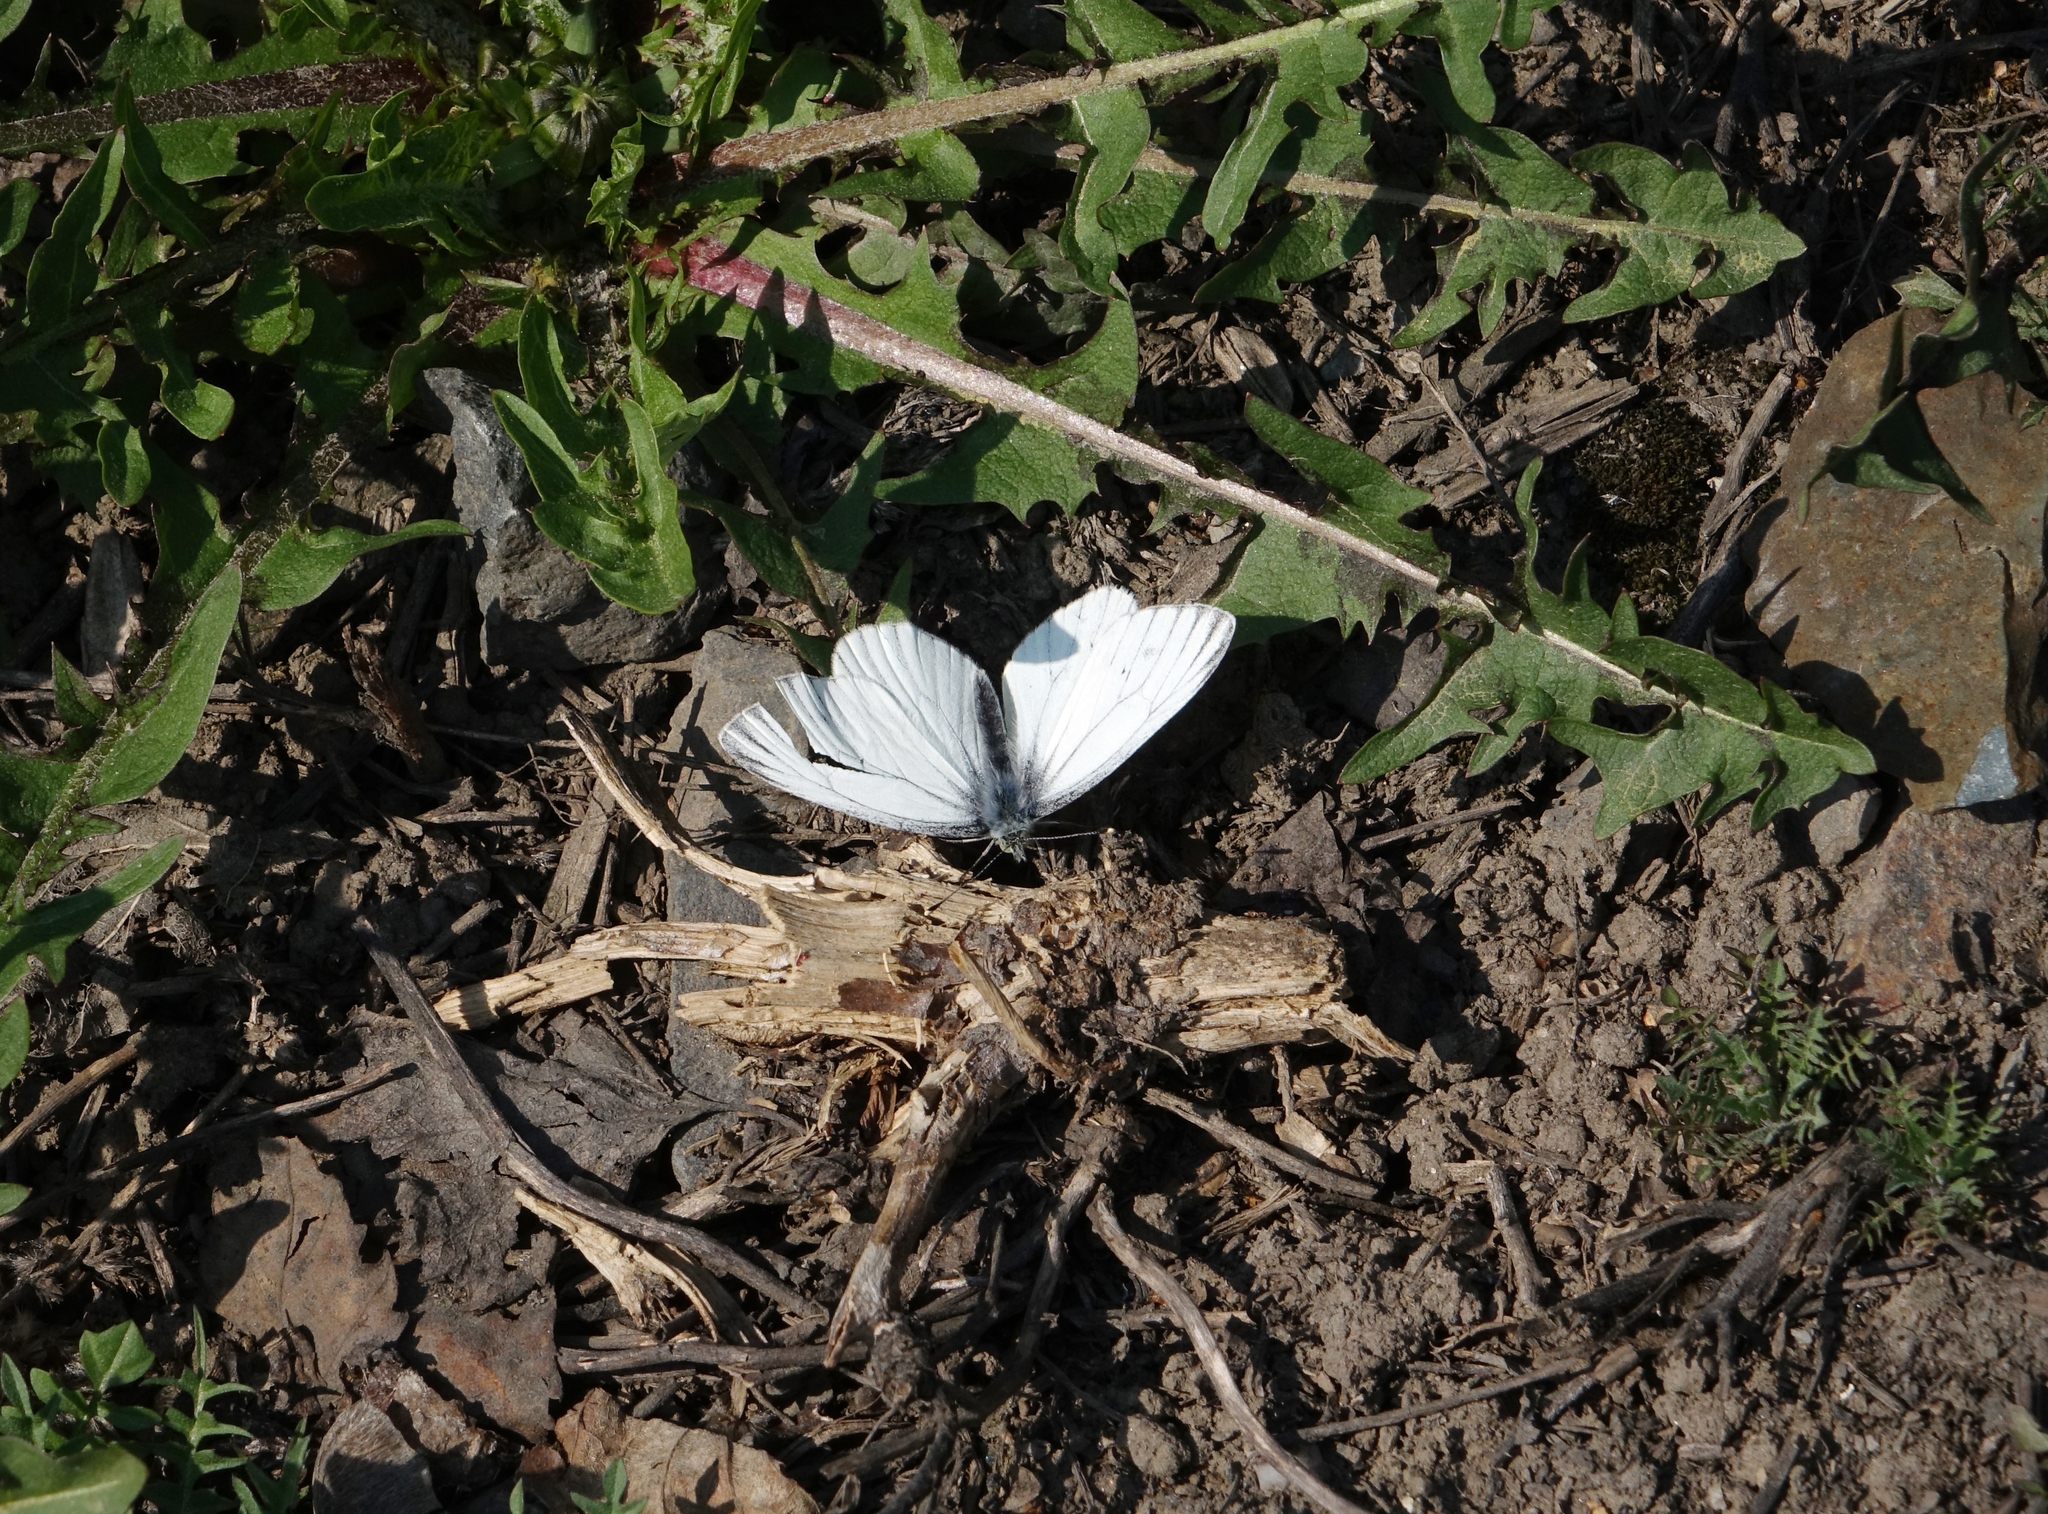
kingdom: Animalia
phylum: Arthropoda
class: Insecta
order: Lepidoptera
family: Pieridae
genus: Pieris
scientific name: Pieris napi
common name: Green-veined white
